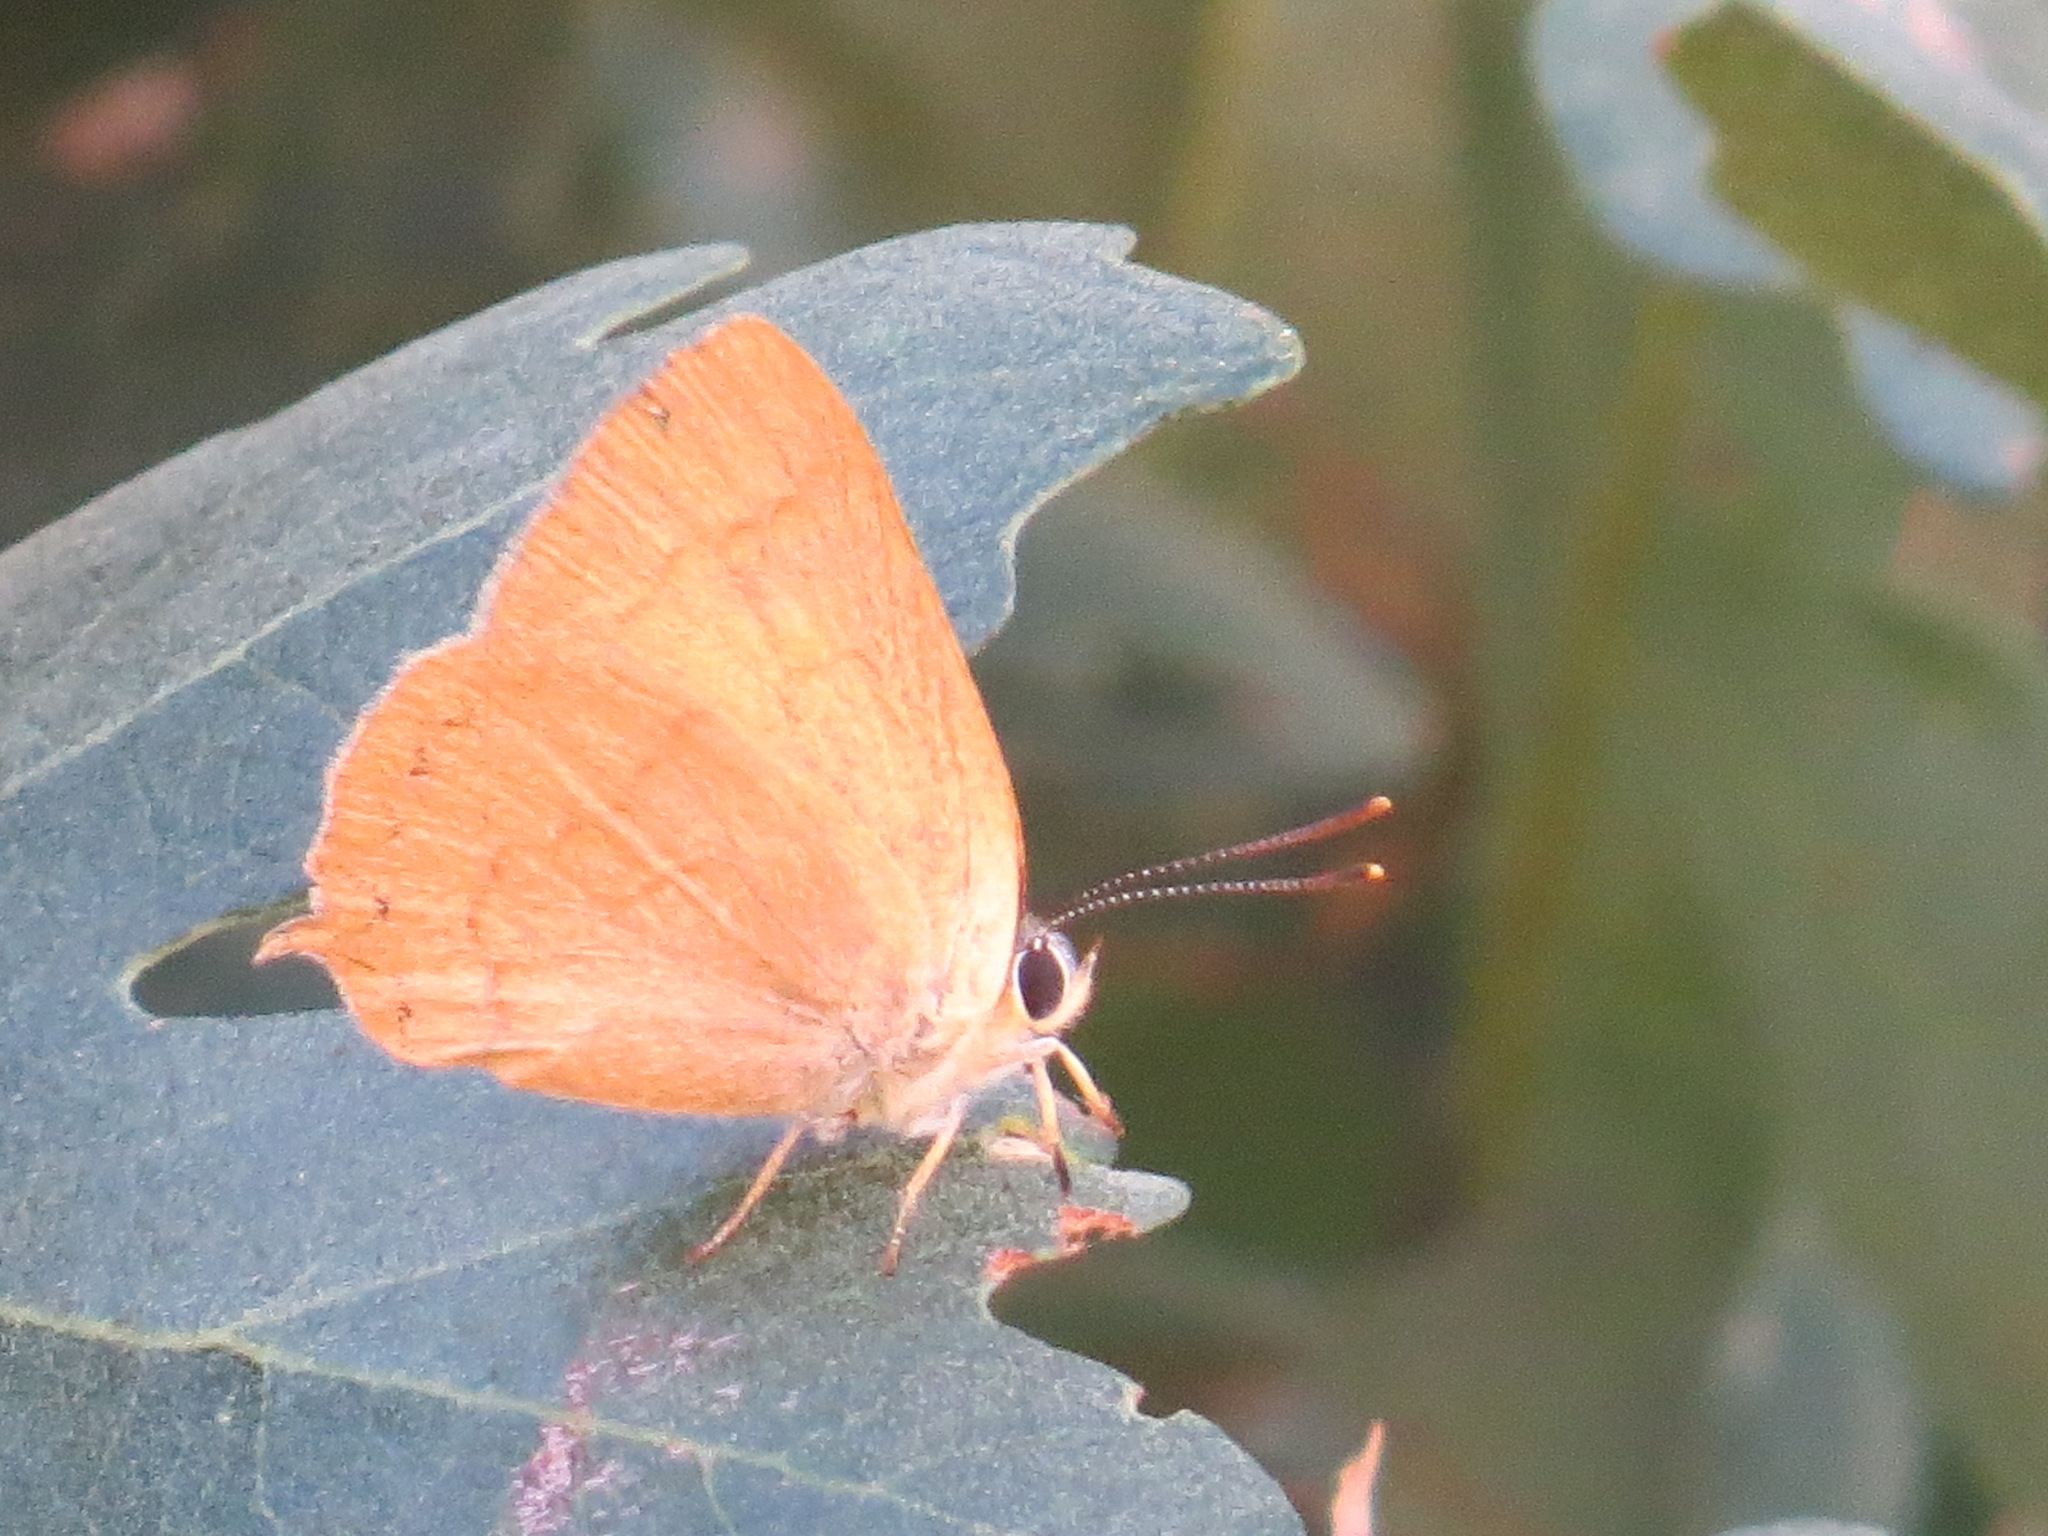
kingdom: Animalia
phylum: Arthropoda
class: Insecta
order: Lepidoptera
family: Lycaenidae
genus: Habrodais
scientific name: Habrodais grunus
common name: Golden hairstreak
